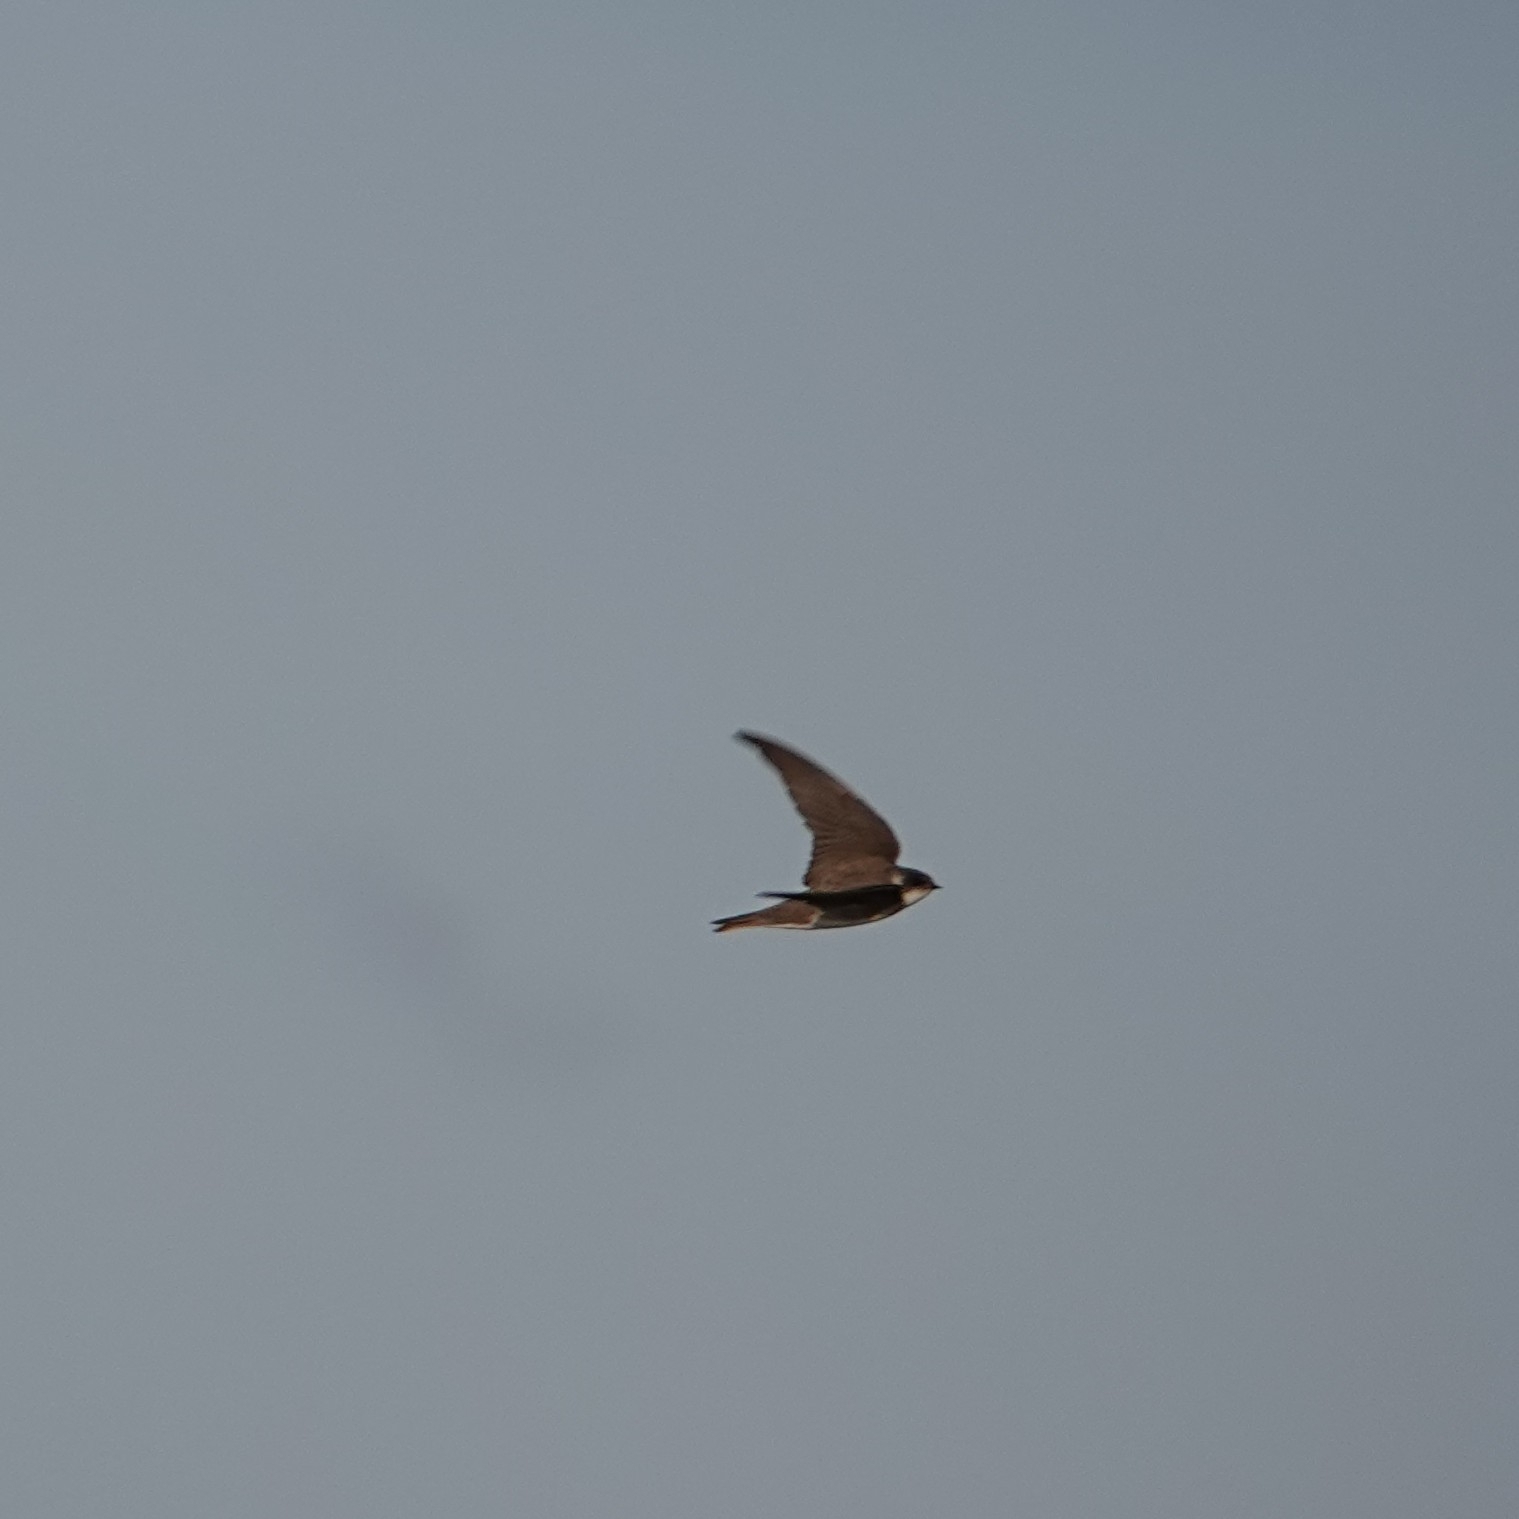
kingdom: Animalia
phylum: Chordata
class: Aves
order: Passeriformes
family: Hirundinidae
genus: Riparia
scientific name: Riparia riparia
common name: Sand martin
